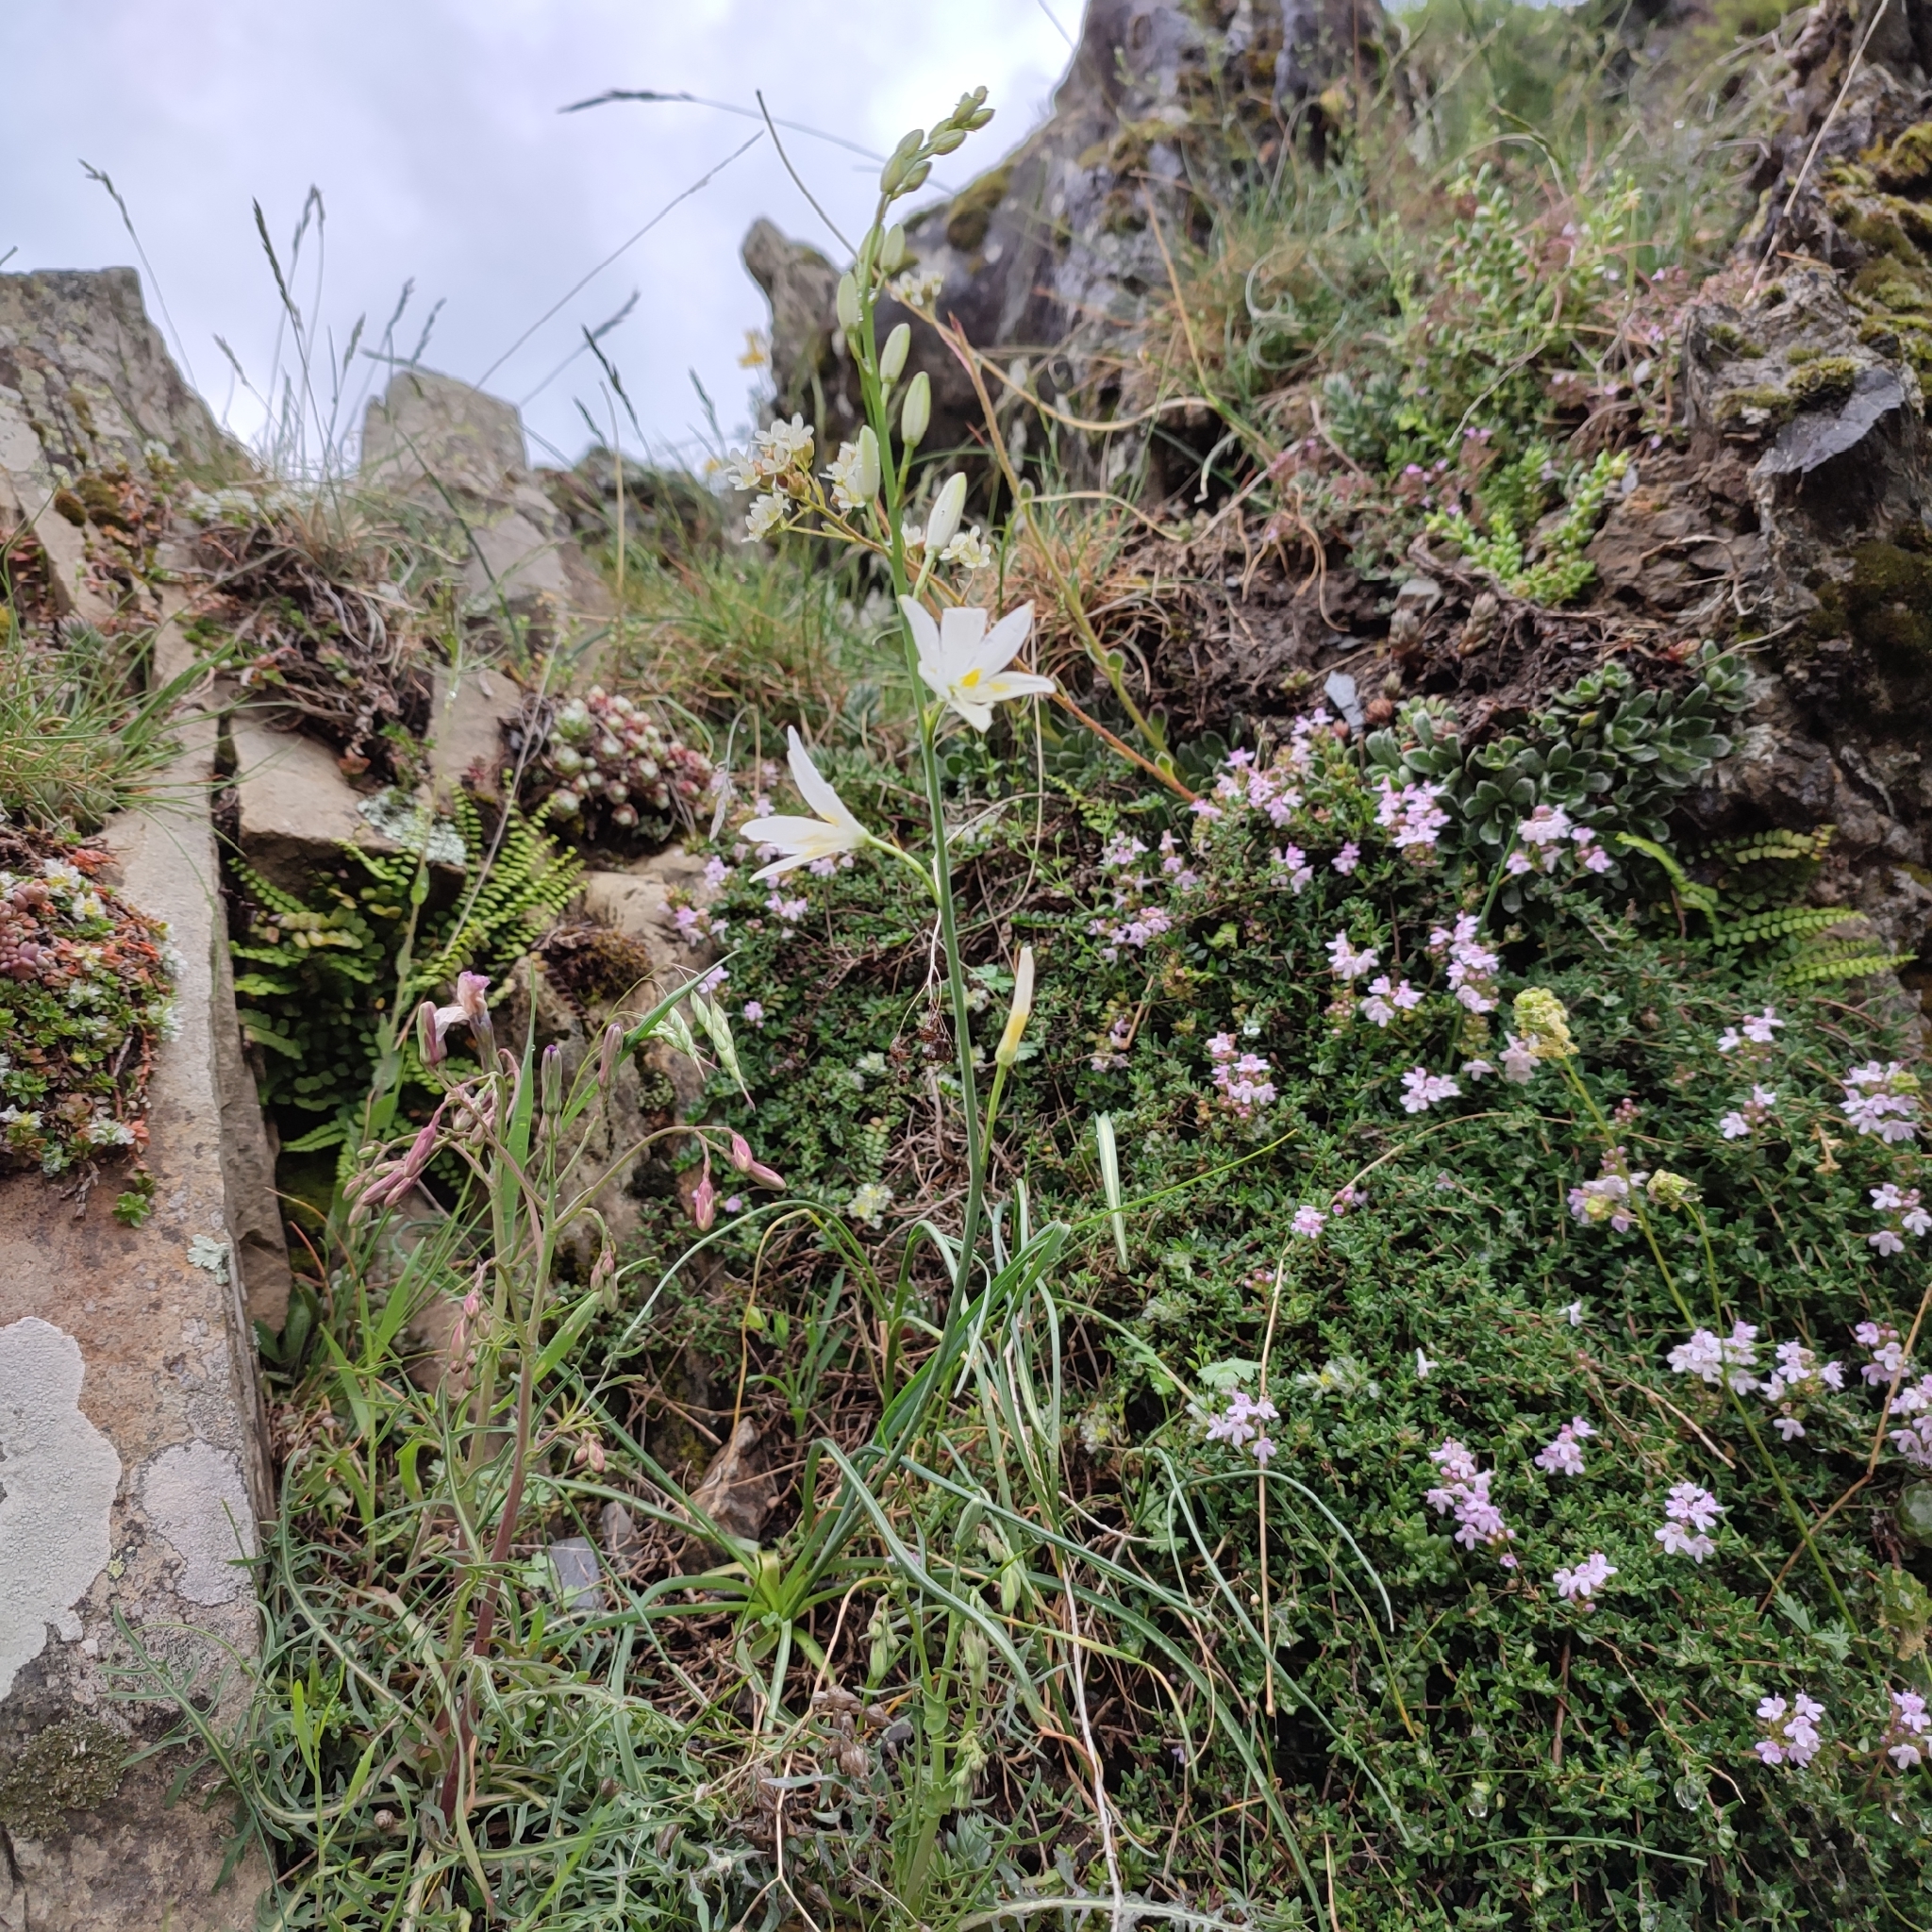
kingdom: Plantae
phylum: Tracheophyta
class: Liliopsida
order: Asparagales
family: Asparagaceae
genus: Anthericum
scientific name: Anthericum liliago
